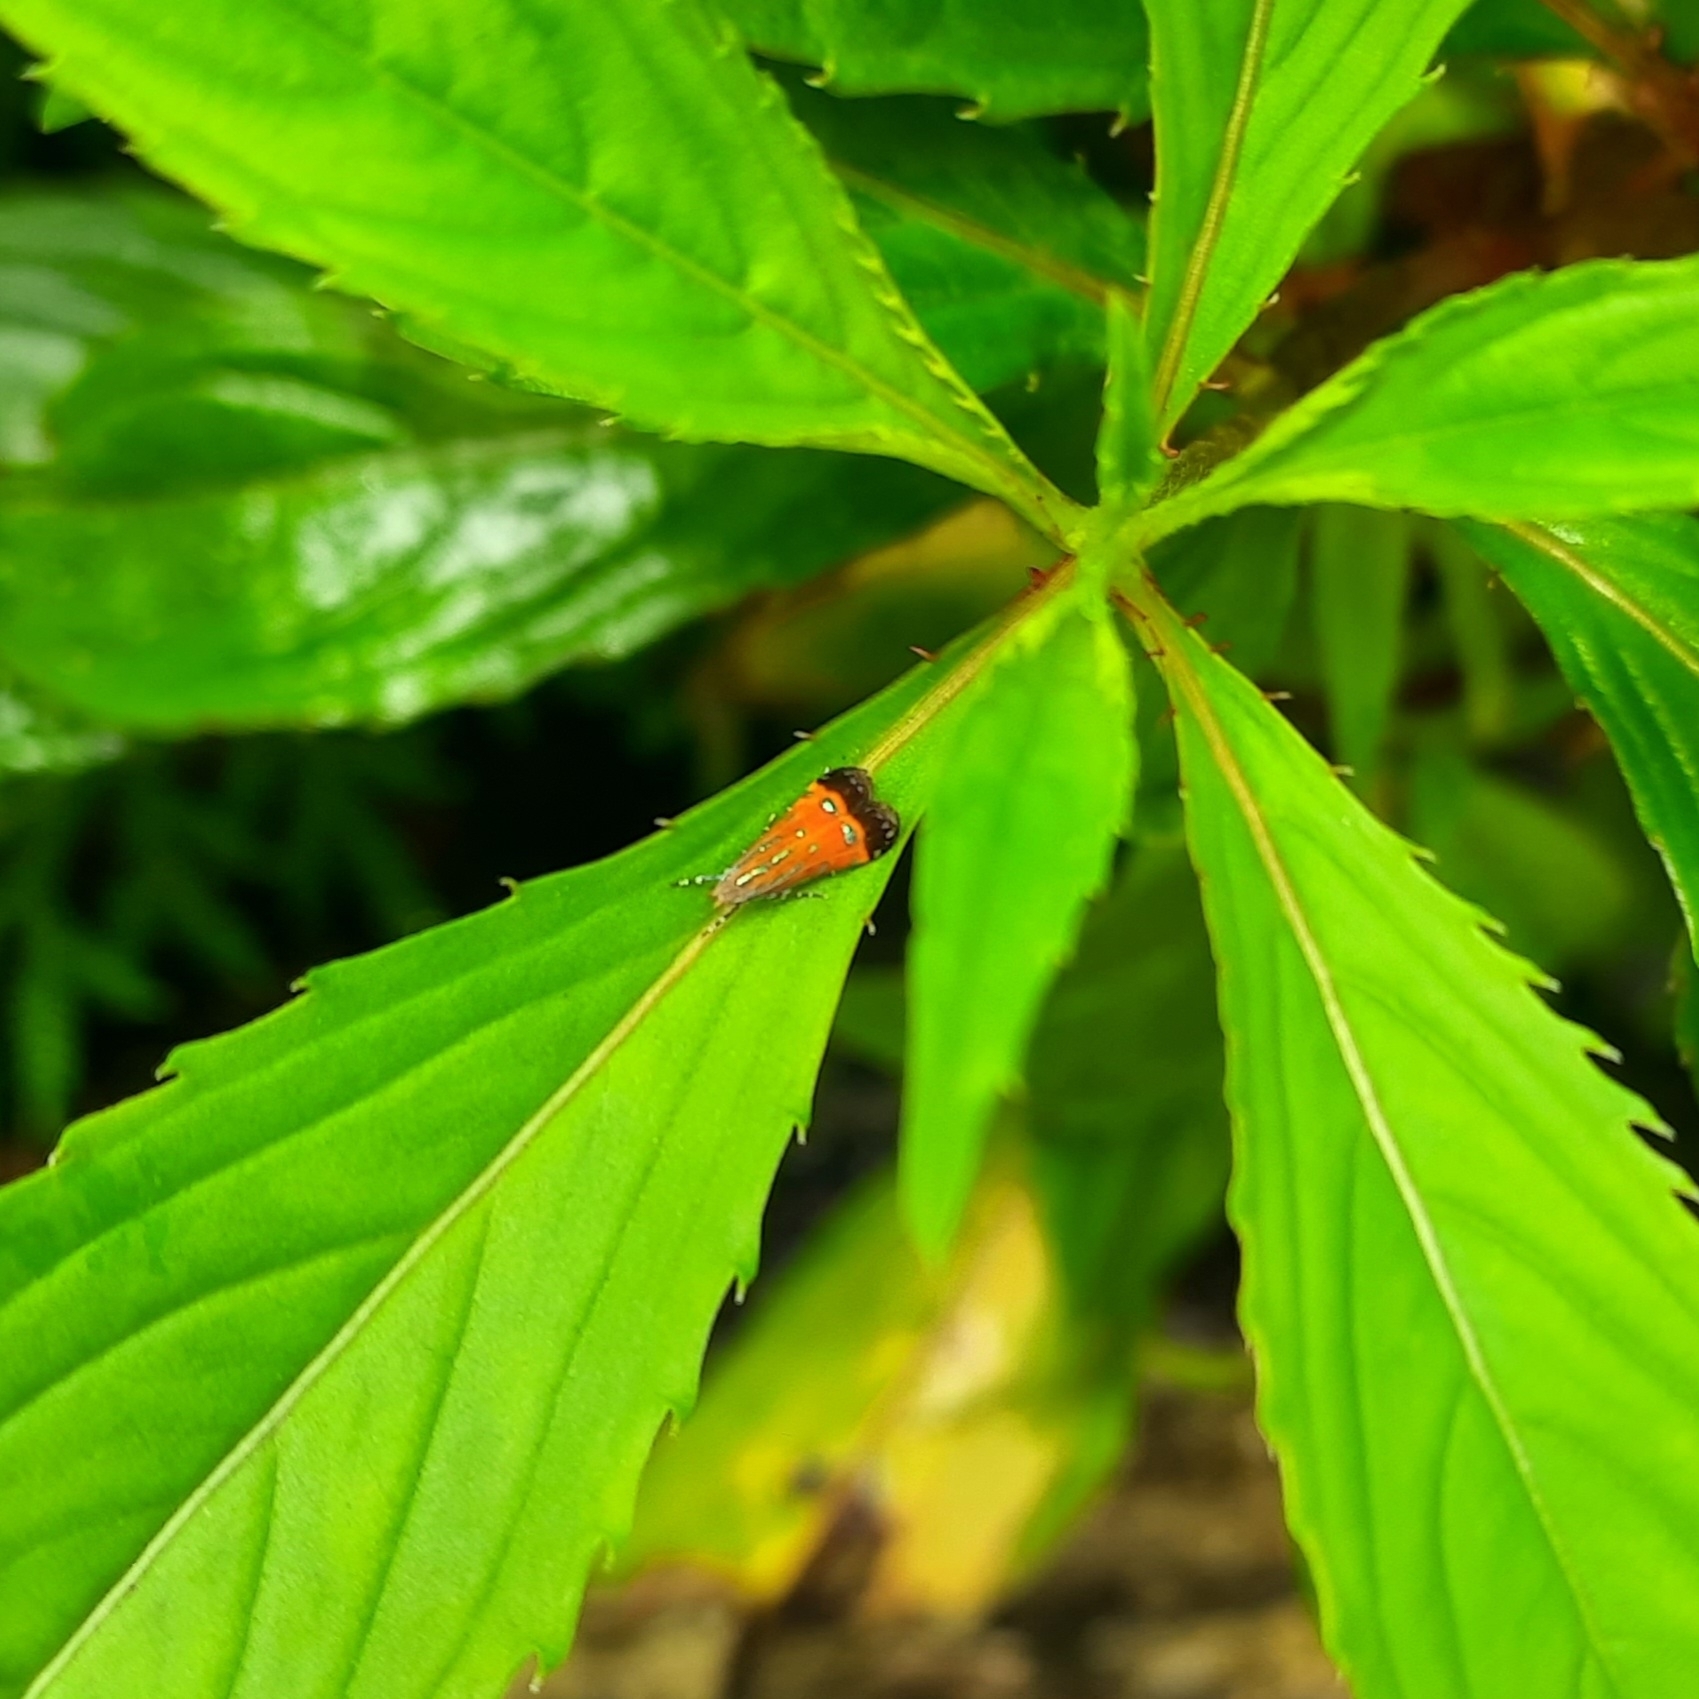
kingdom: Animalia
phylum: Arthropoda
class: Insecta
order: Lepidoptera
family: Gelechiidae
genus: Tricyanaula
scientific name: Tricyanaula aurantiaca
